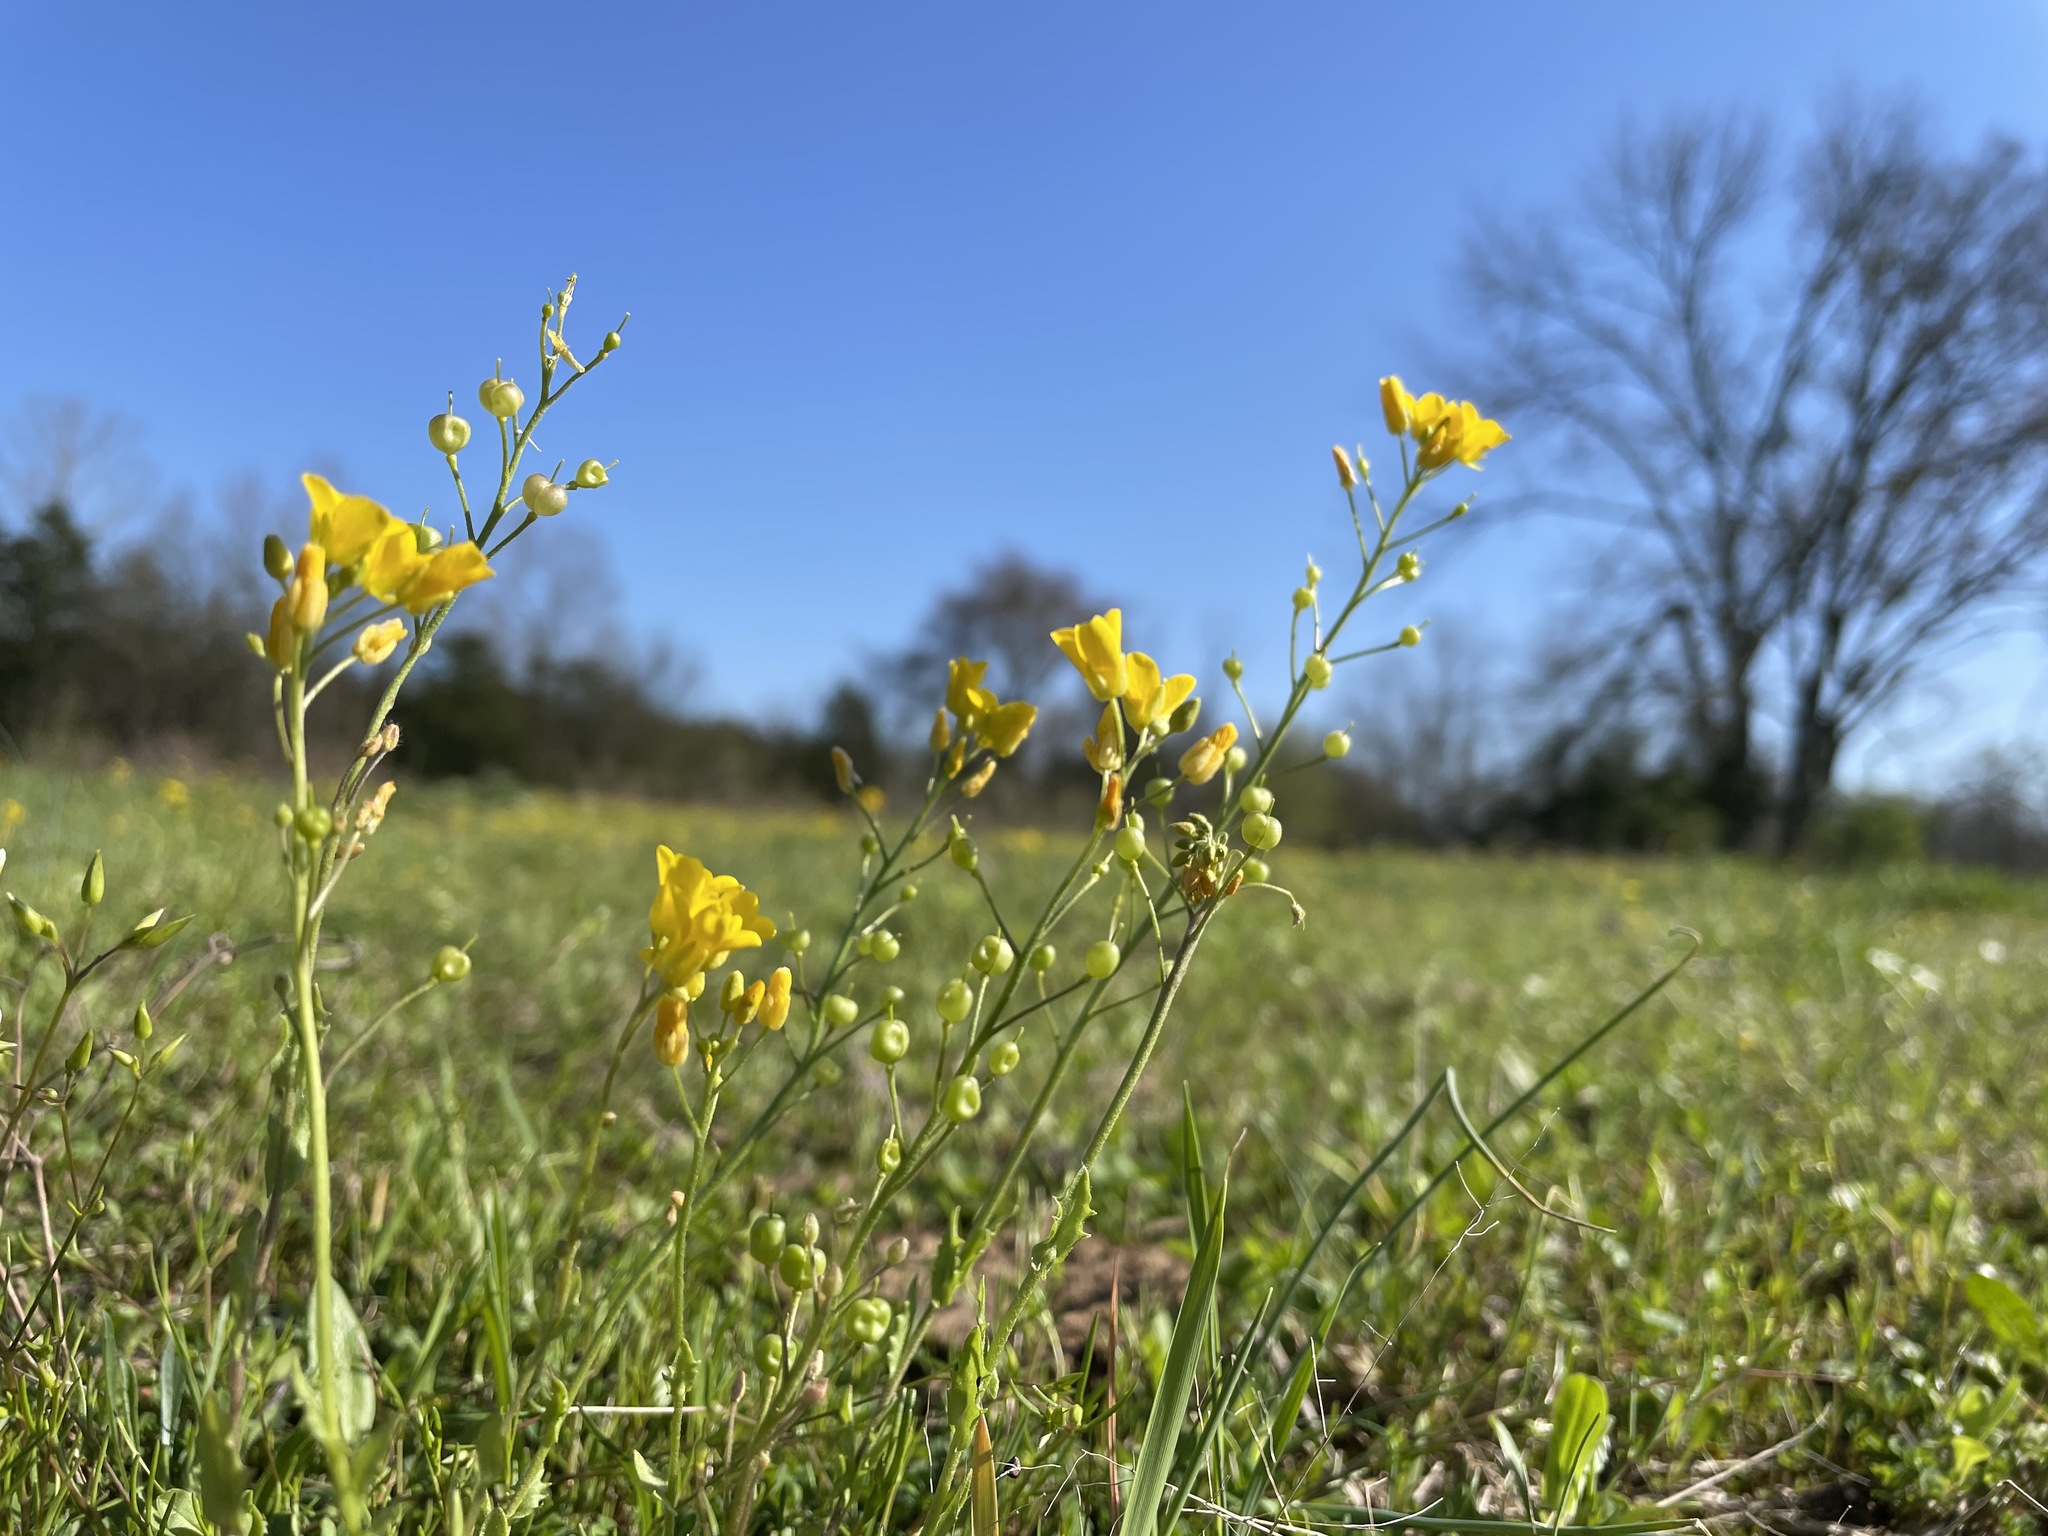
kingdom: Plantae
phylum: Tracheophyta
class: Magnoliopsida
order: Brassicales
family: Brassicaceae
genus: Paysonia
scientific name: Paysonia lyrata
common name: Lyrate bladderpod
